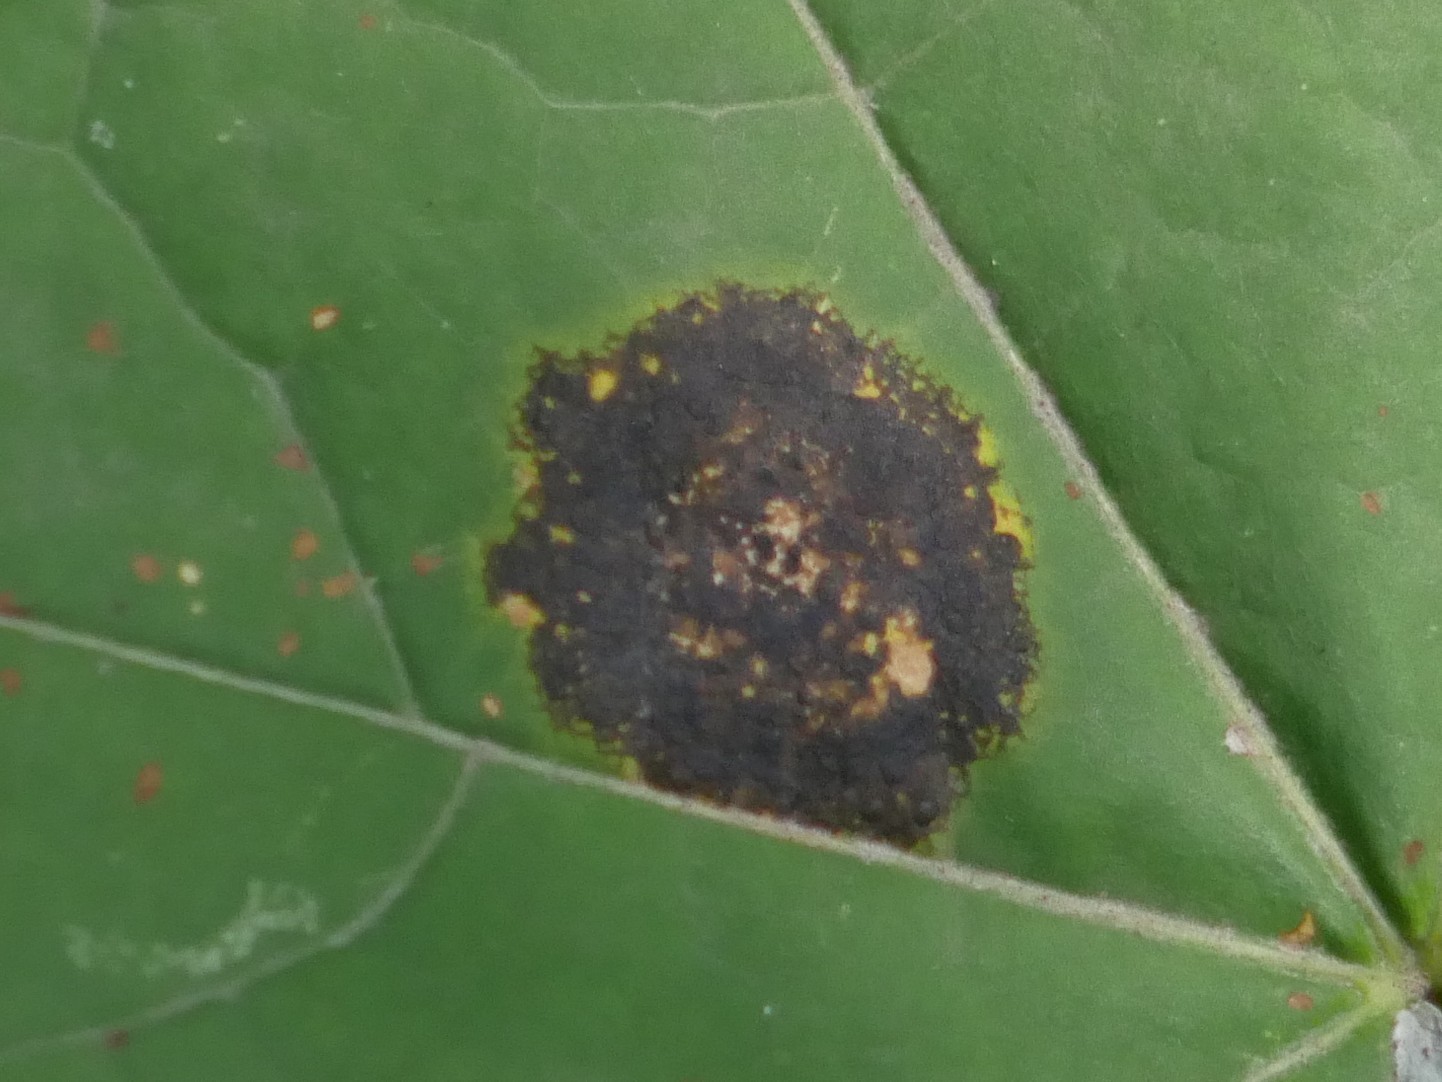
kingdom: Fungi
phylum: Ascomycota
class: Leotiomycetes
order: Rhytismatales
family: Rhytismataceae
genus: Rhytisma
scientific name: Rhytisma acerinum
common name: European tar spot
